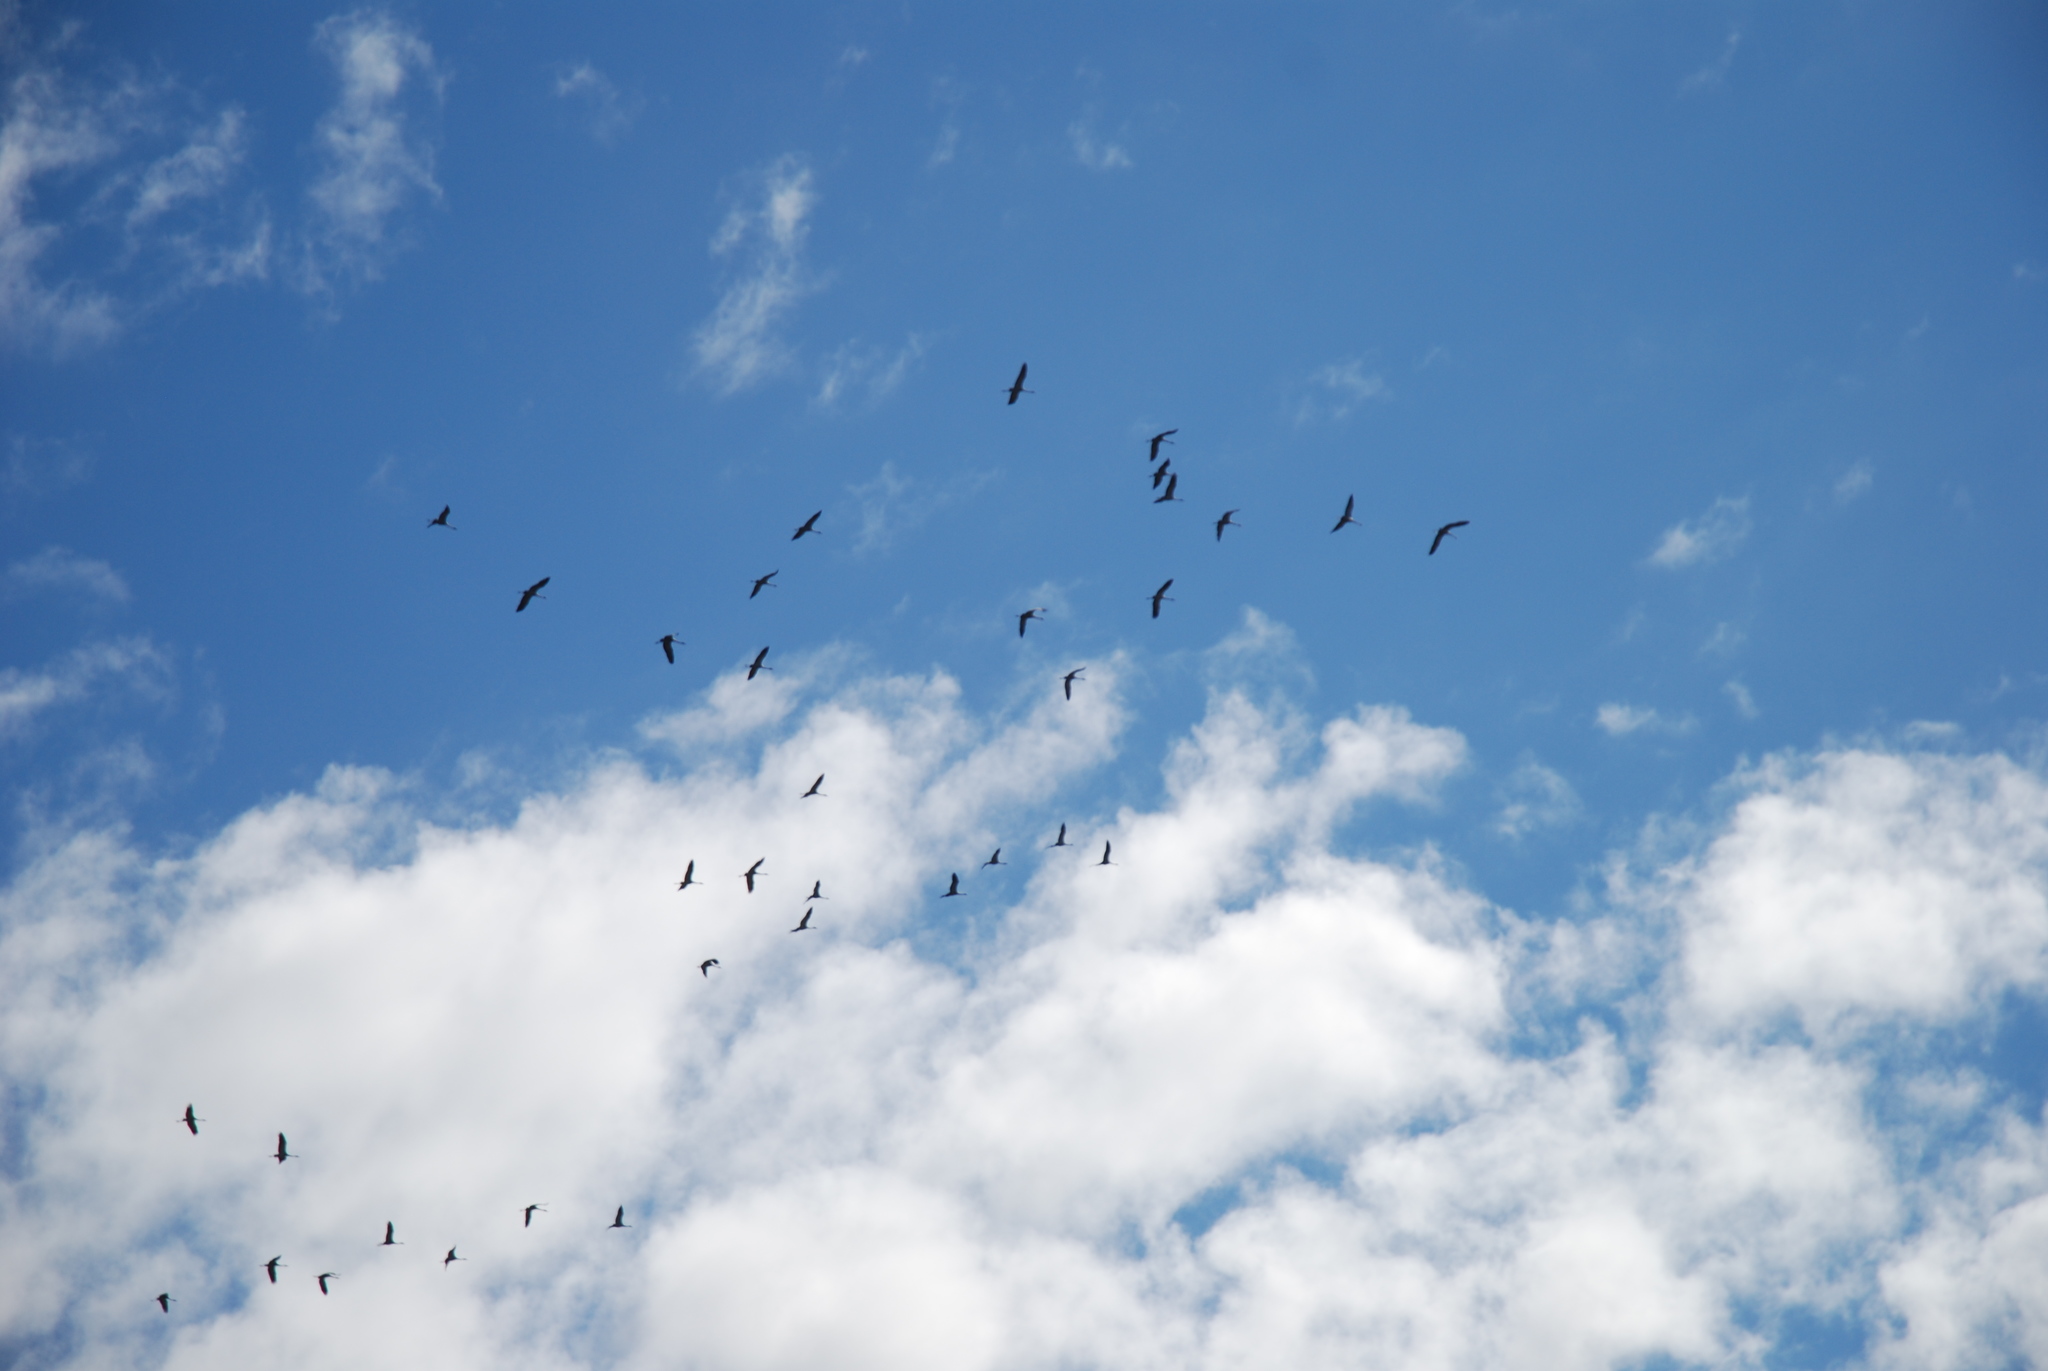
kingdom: Animalia
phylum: Chordata
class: Aves
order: Gruiformes
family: Gruidae
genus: Grus
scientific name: Grus grus
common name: Common crane
